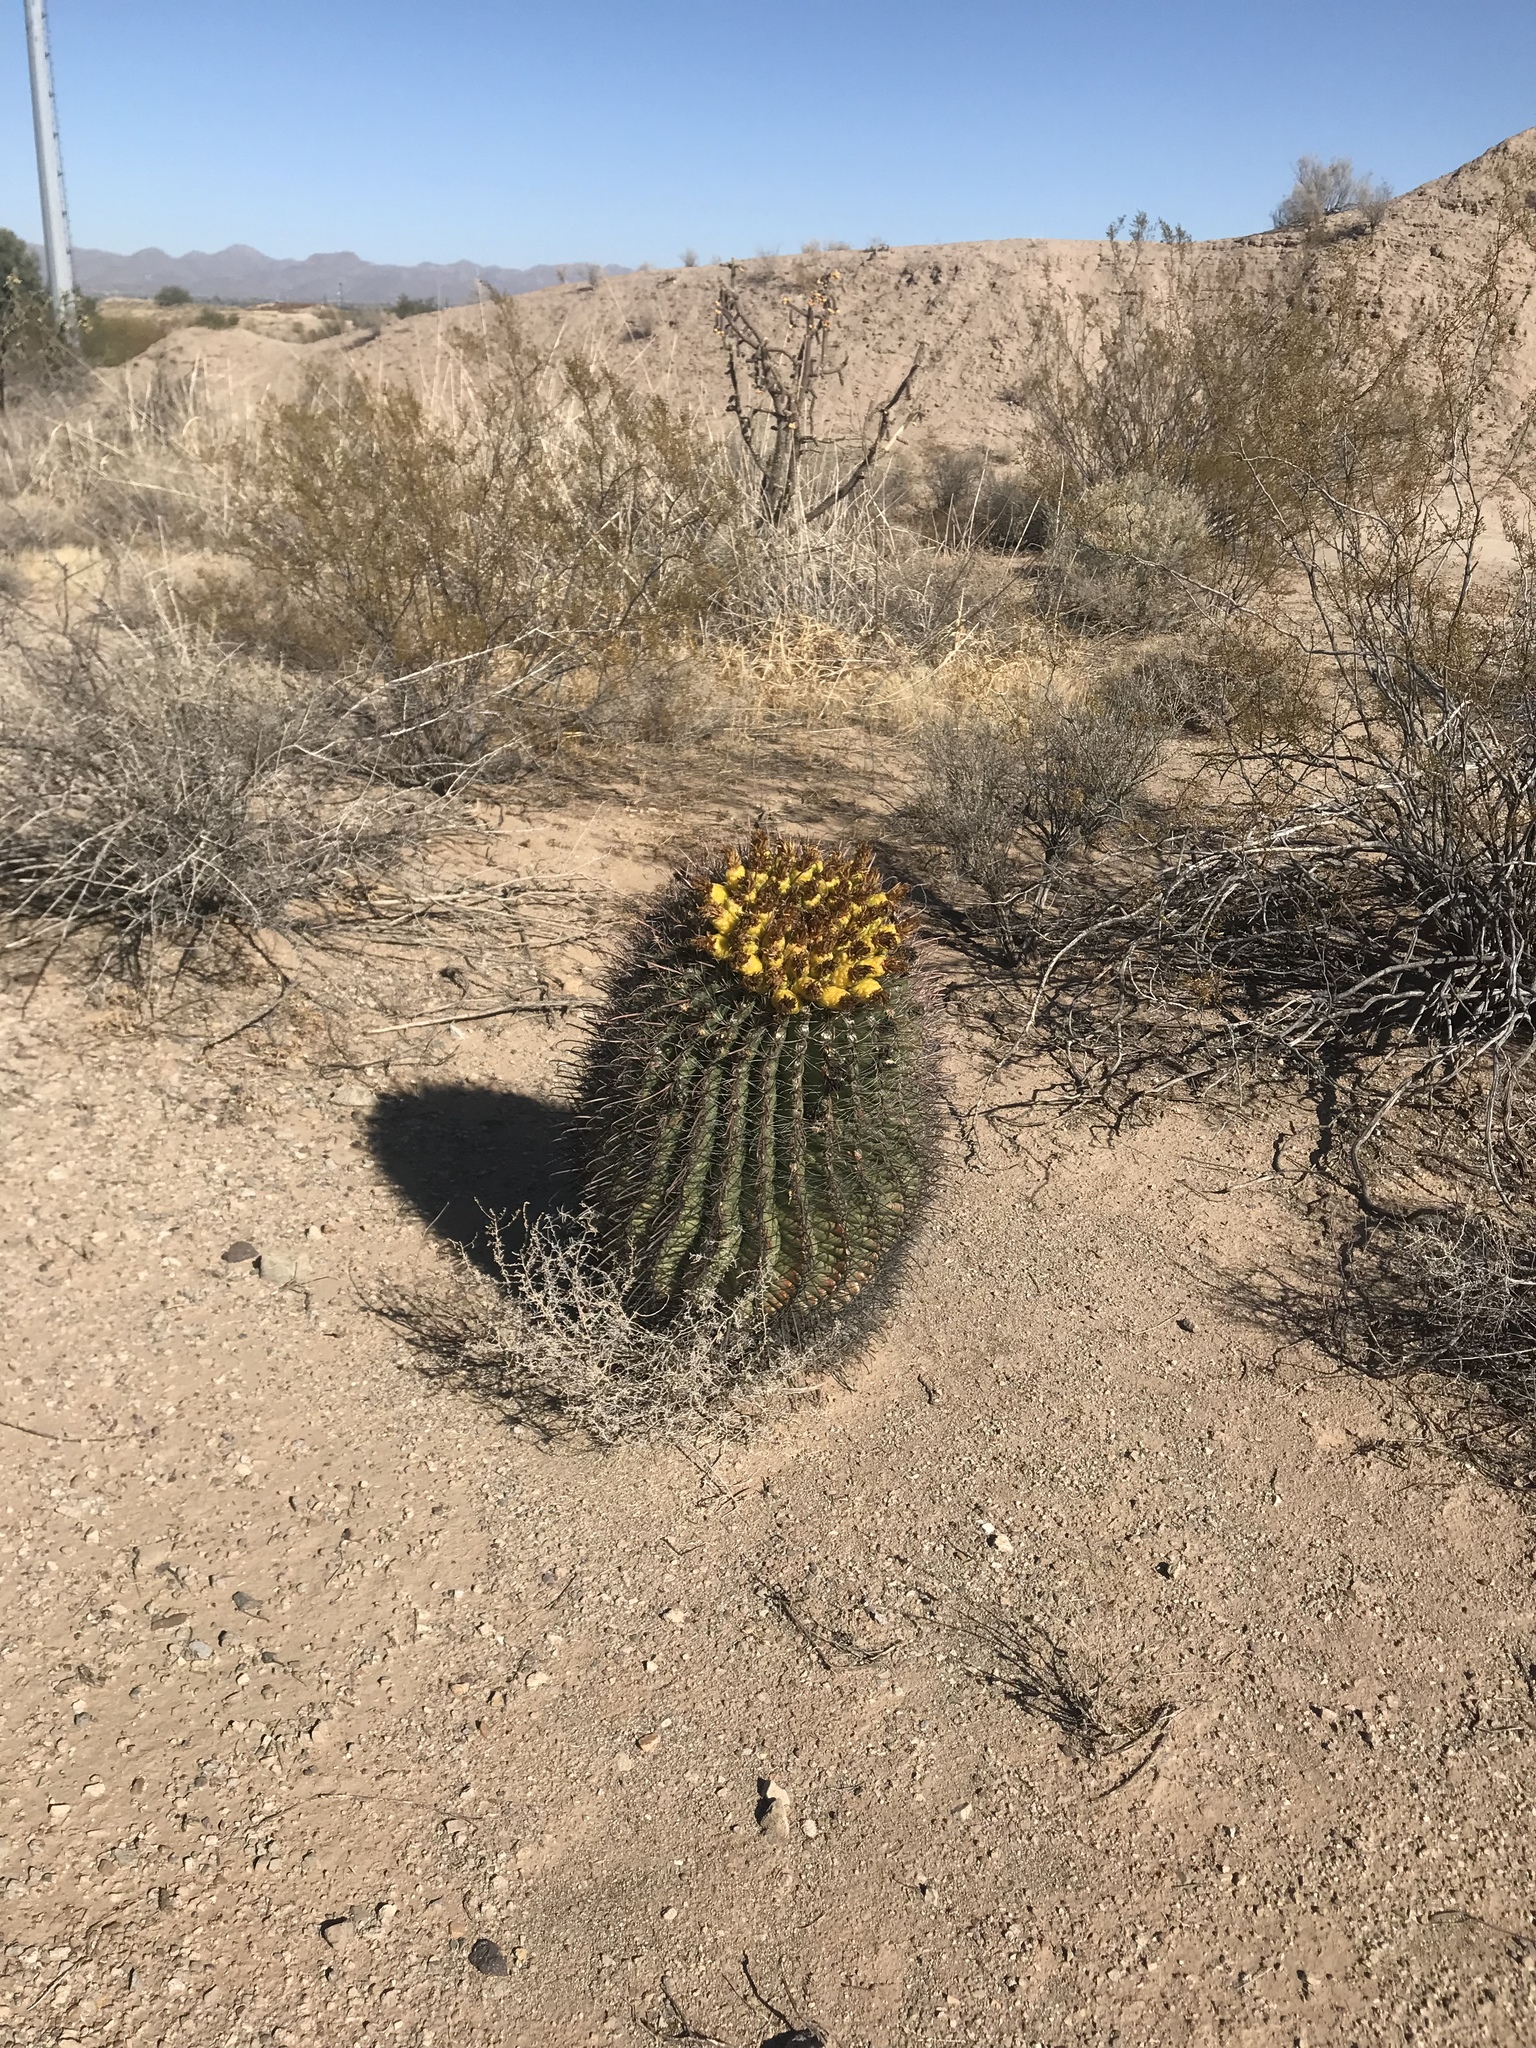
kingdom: Plantae
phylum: Tracheophyta
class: Magnoliopsida
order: Caryophyllales
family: Cactaceae
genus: Ferocactus
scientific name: Ferocactus wislizeni
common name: Candy barrel cactus
